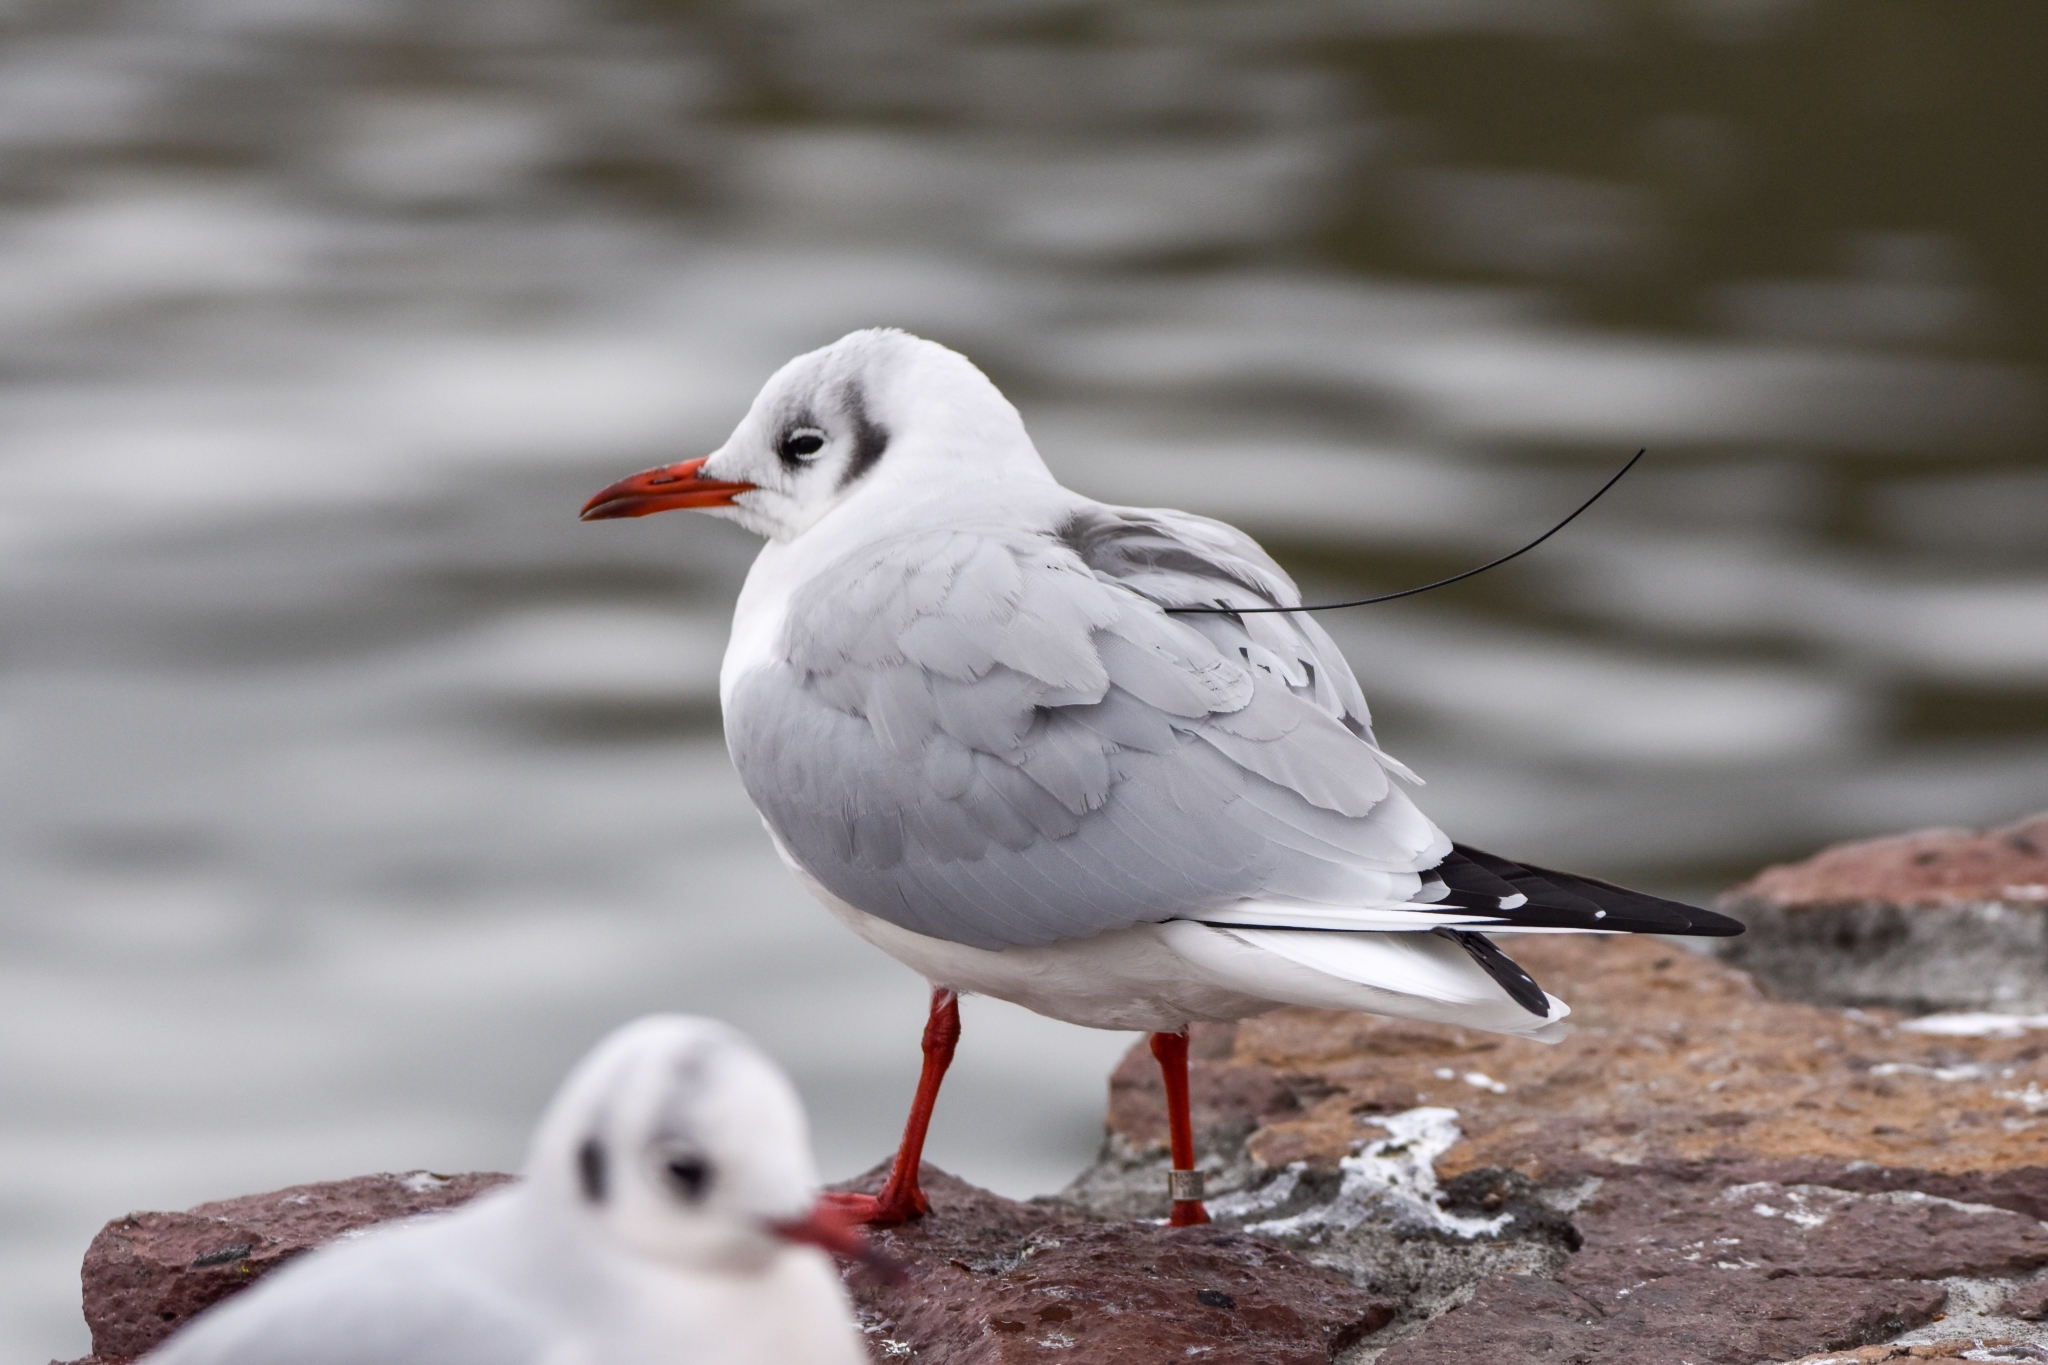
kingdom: Animalia
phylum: Chordata
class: Aves
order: Charadriiformes
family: Laridae
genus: Chroicocephalus
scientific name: Chroicocephalus ridibundus
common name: Black-headed gull
